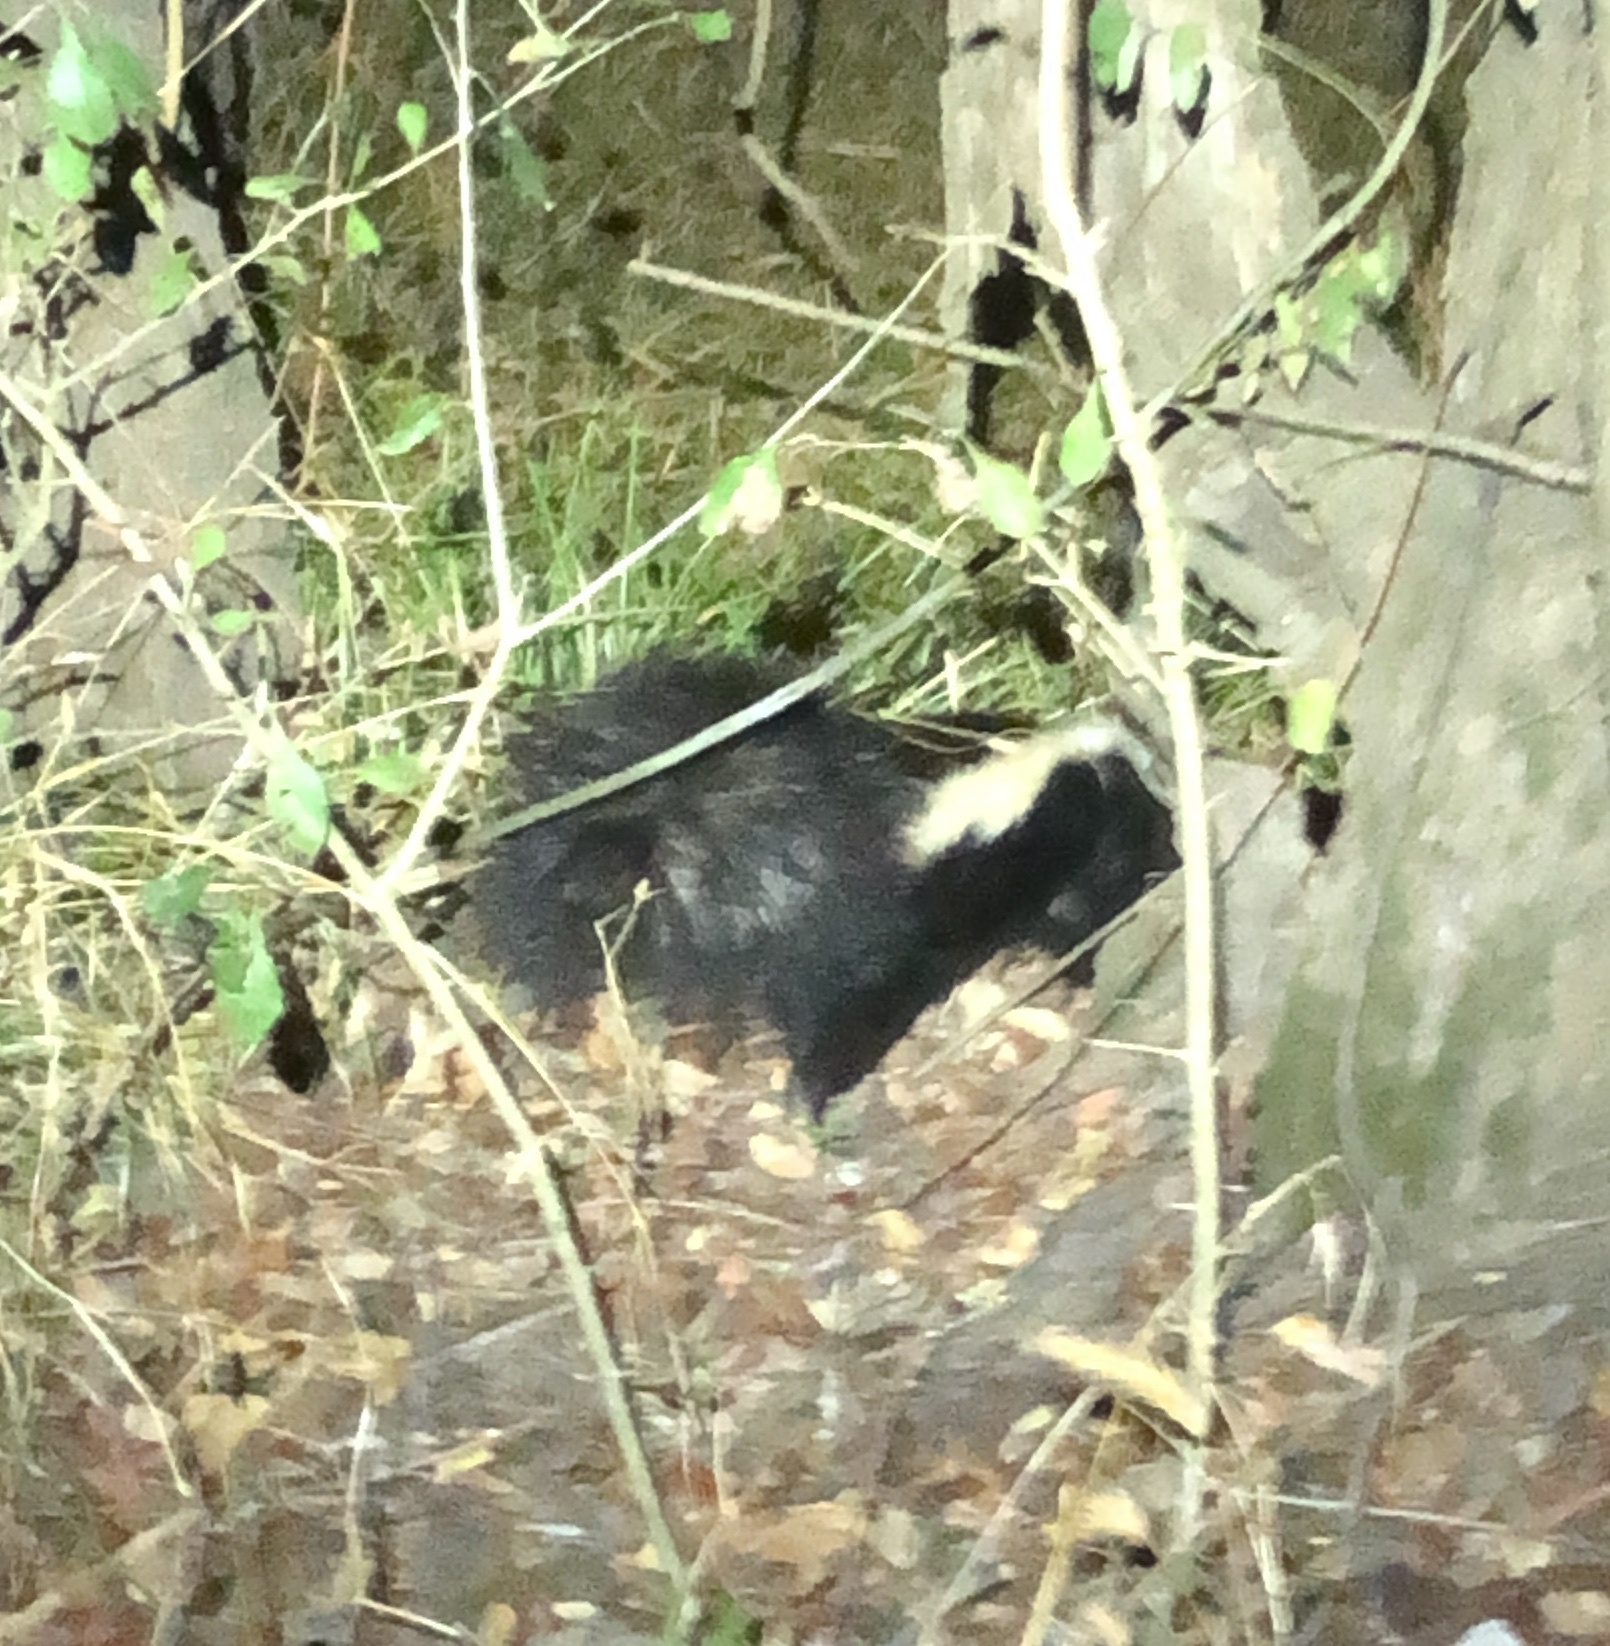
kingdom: Animalia
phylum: Chordata
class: Mammalia
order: Carnivora
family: Mephitidae
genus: Mephitis
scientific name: Mephitis mephitis
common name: Striped skunk
